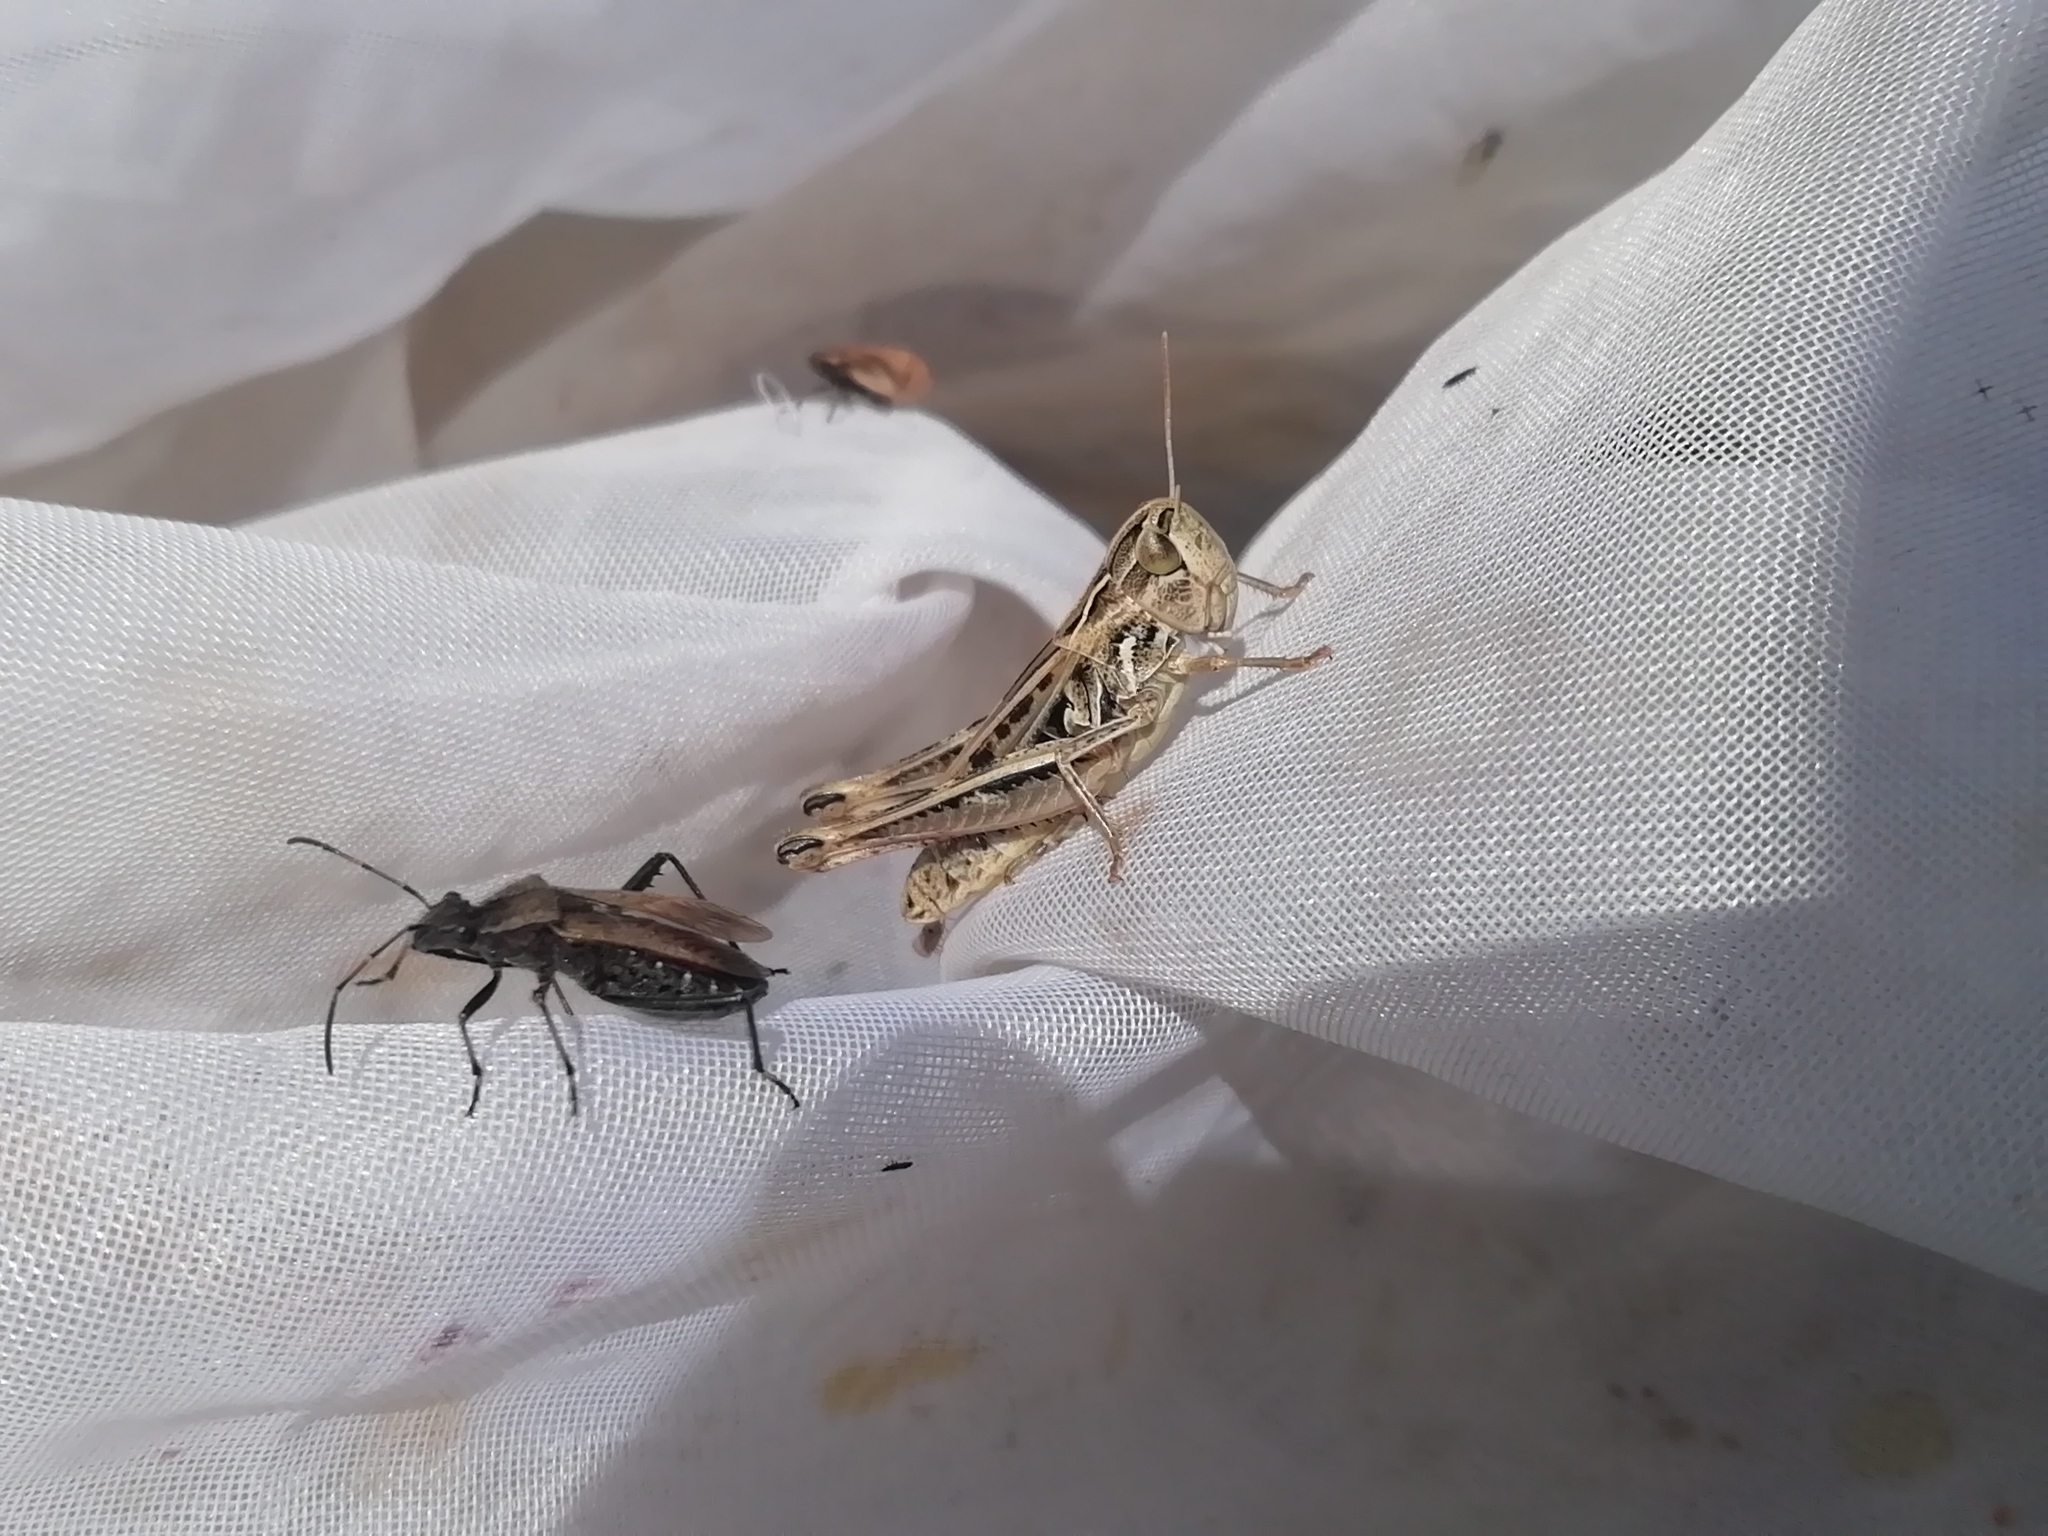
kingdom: Animalia
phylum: Arthropoda
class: Insecta
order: Orthoptera
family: Acrididae
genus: Stenobothrus
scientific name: Stenobothrus nigromaculatus
